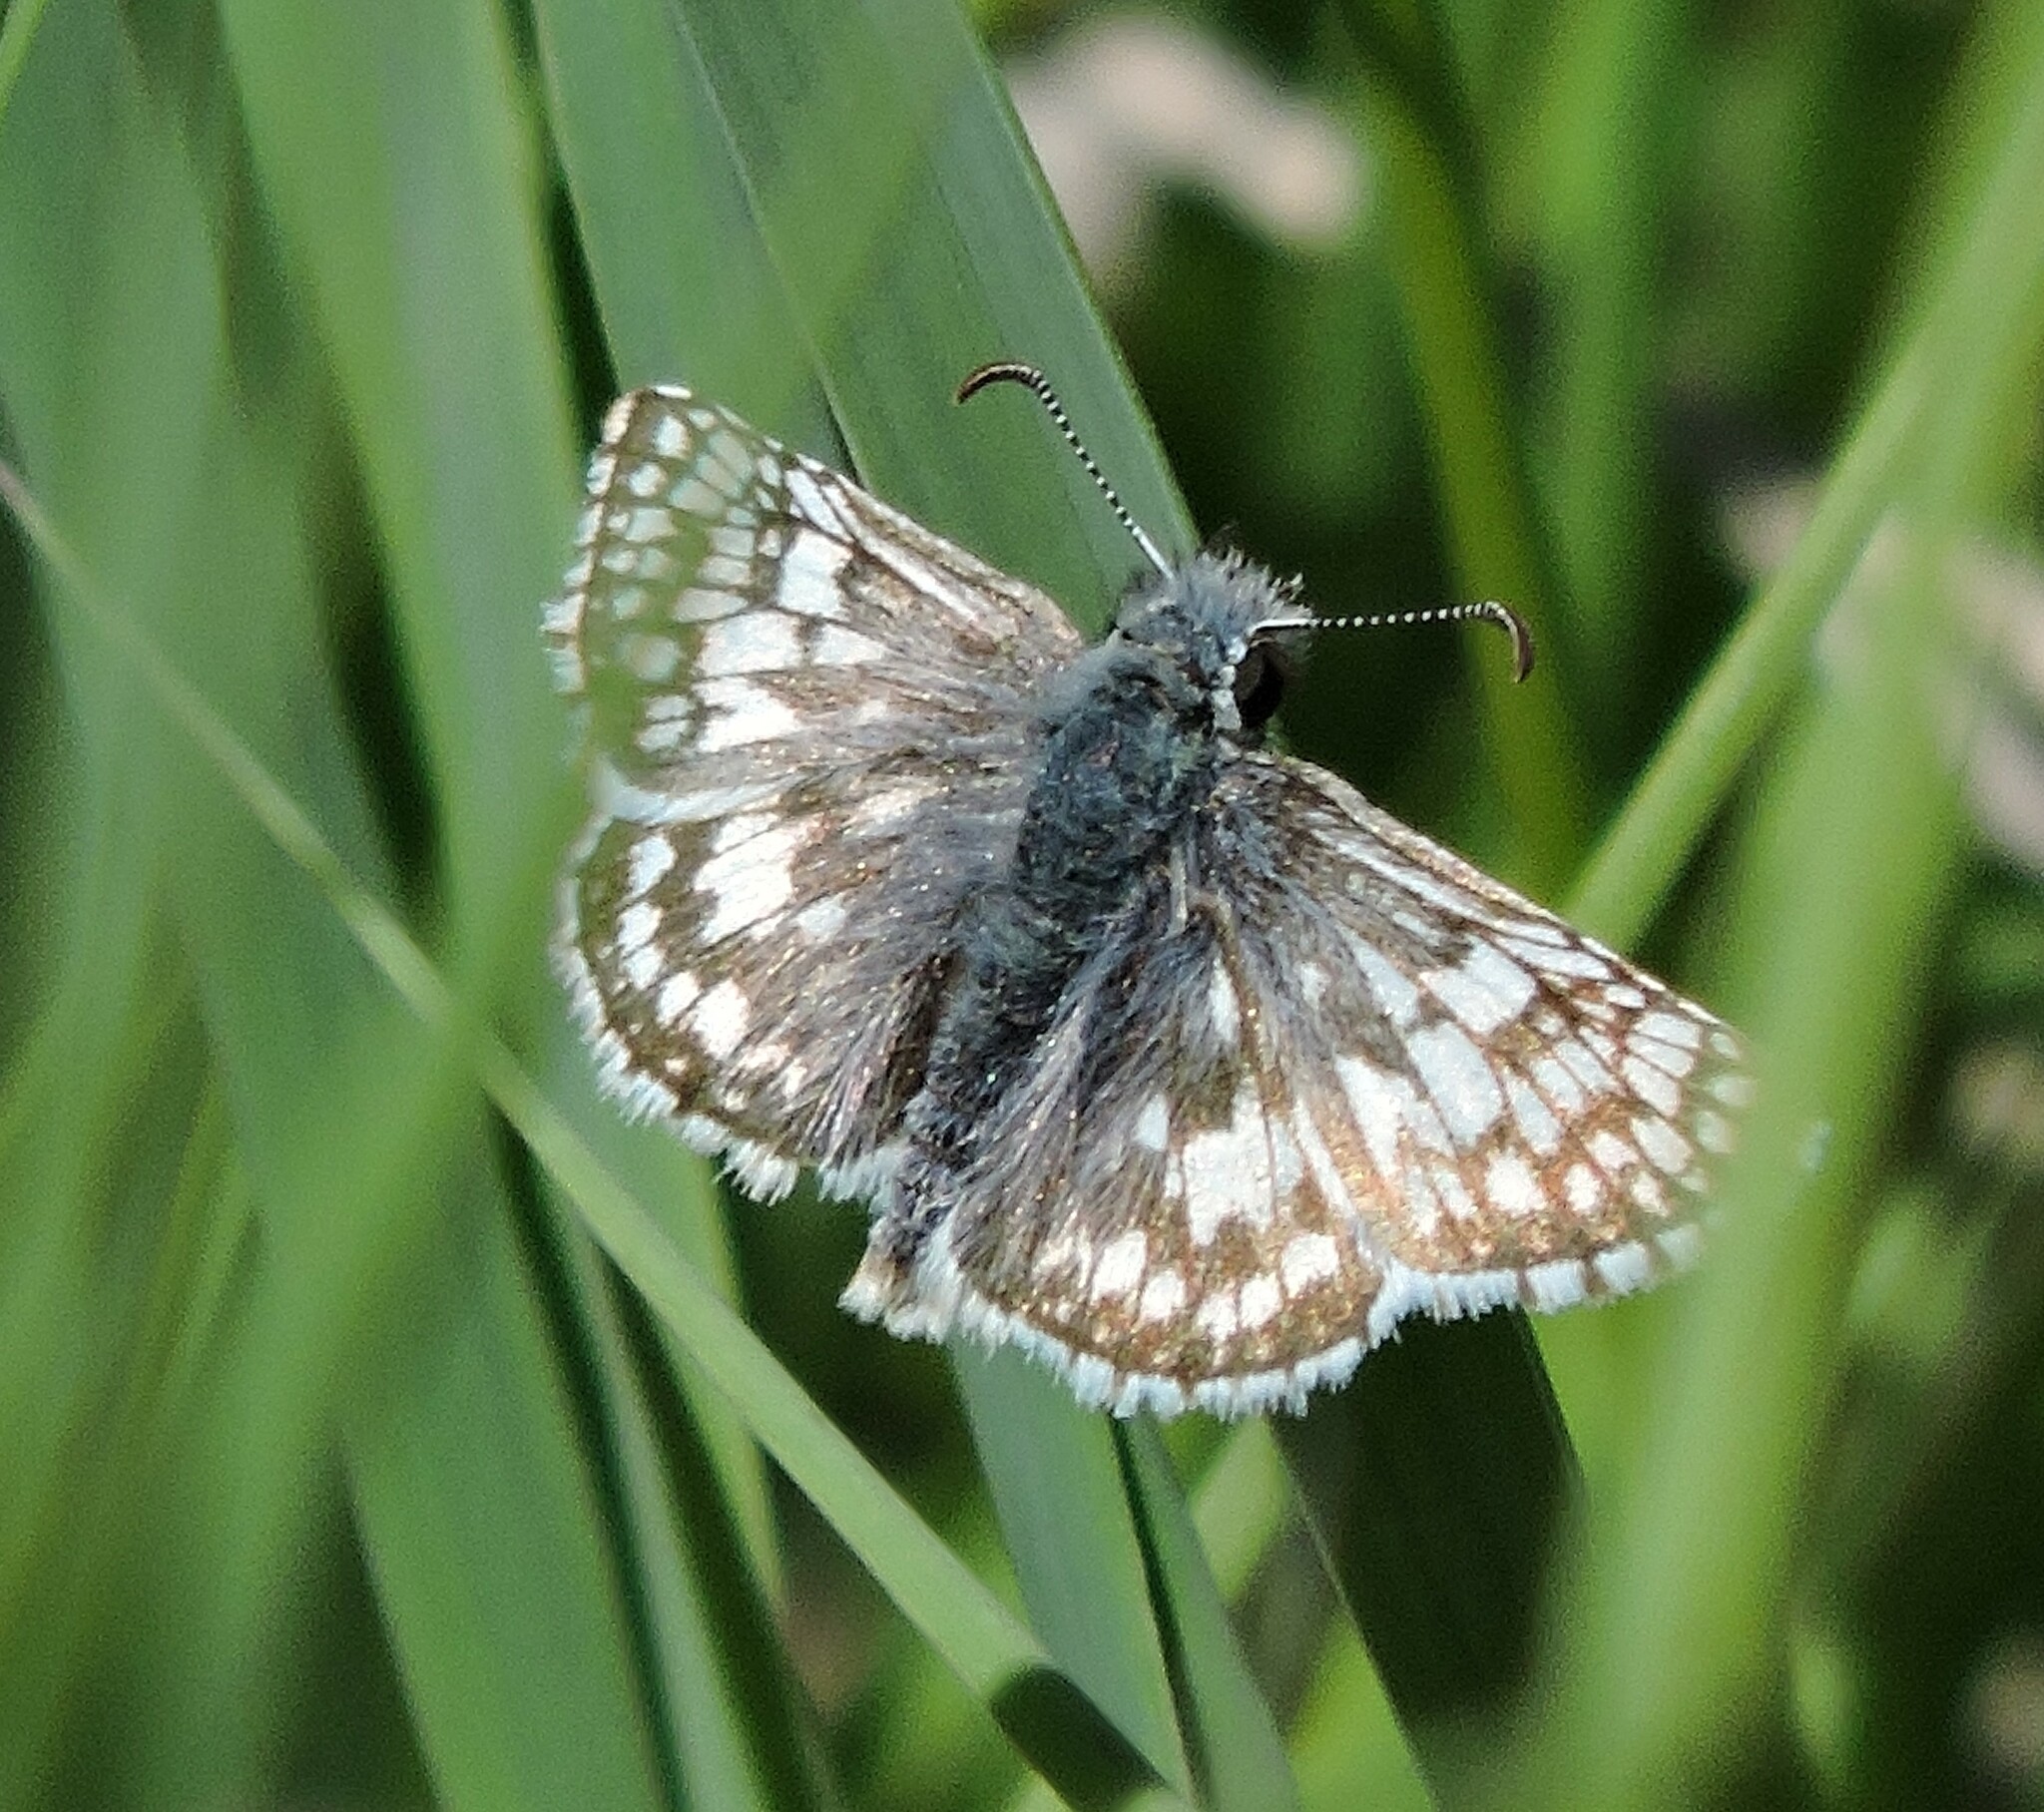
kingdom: Animalia
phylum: Arthropoda
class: Insecta
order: Lepidoptera
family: Hesperiidae
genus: Burnsius
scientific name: Burnsius communis
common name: Common checkered-skipper
